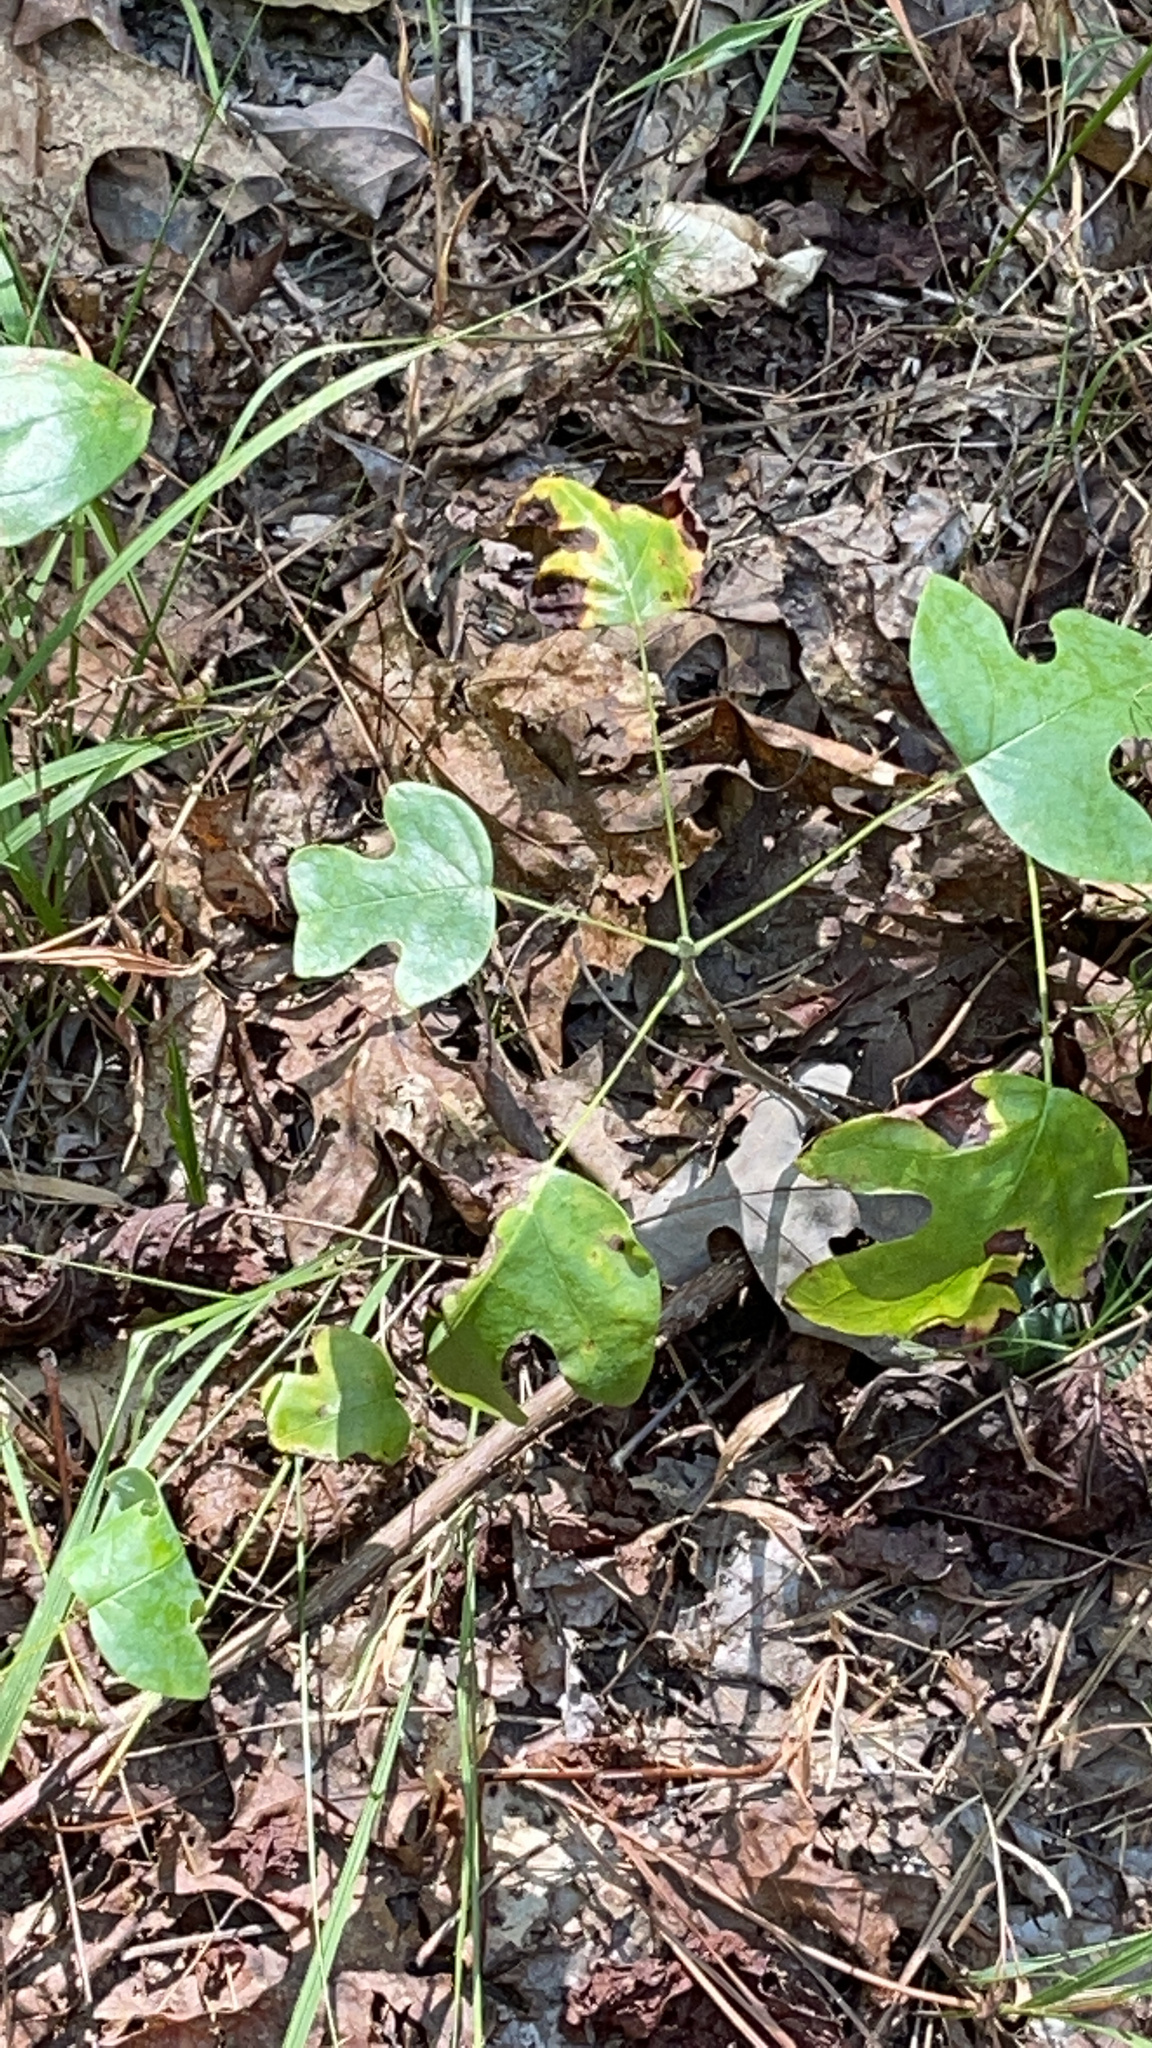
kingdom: Plantae
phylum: Tracheophyta
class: Magnoliopsida
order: Magnoliales
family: Magnoliaceae
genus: Liriodendron
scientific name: Liriodendron tulipifera
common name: Tulip tree
